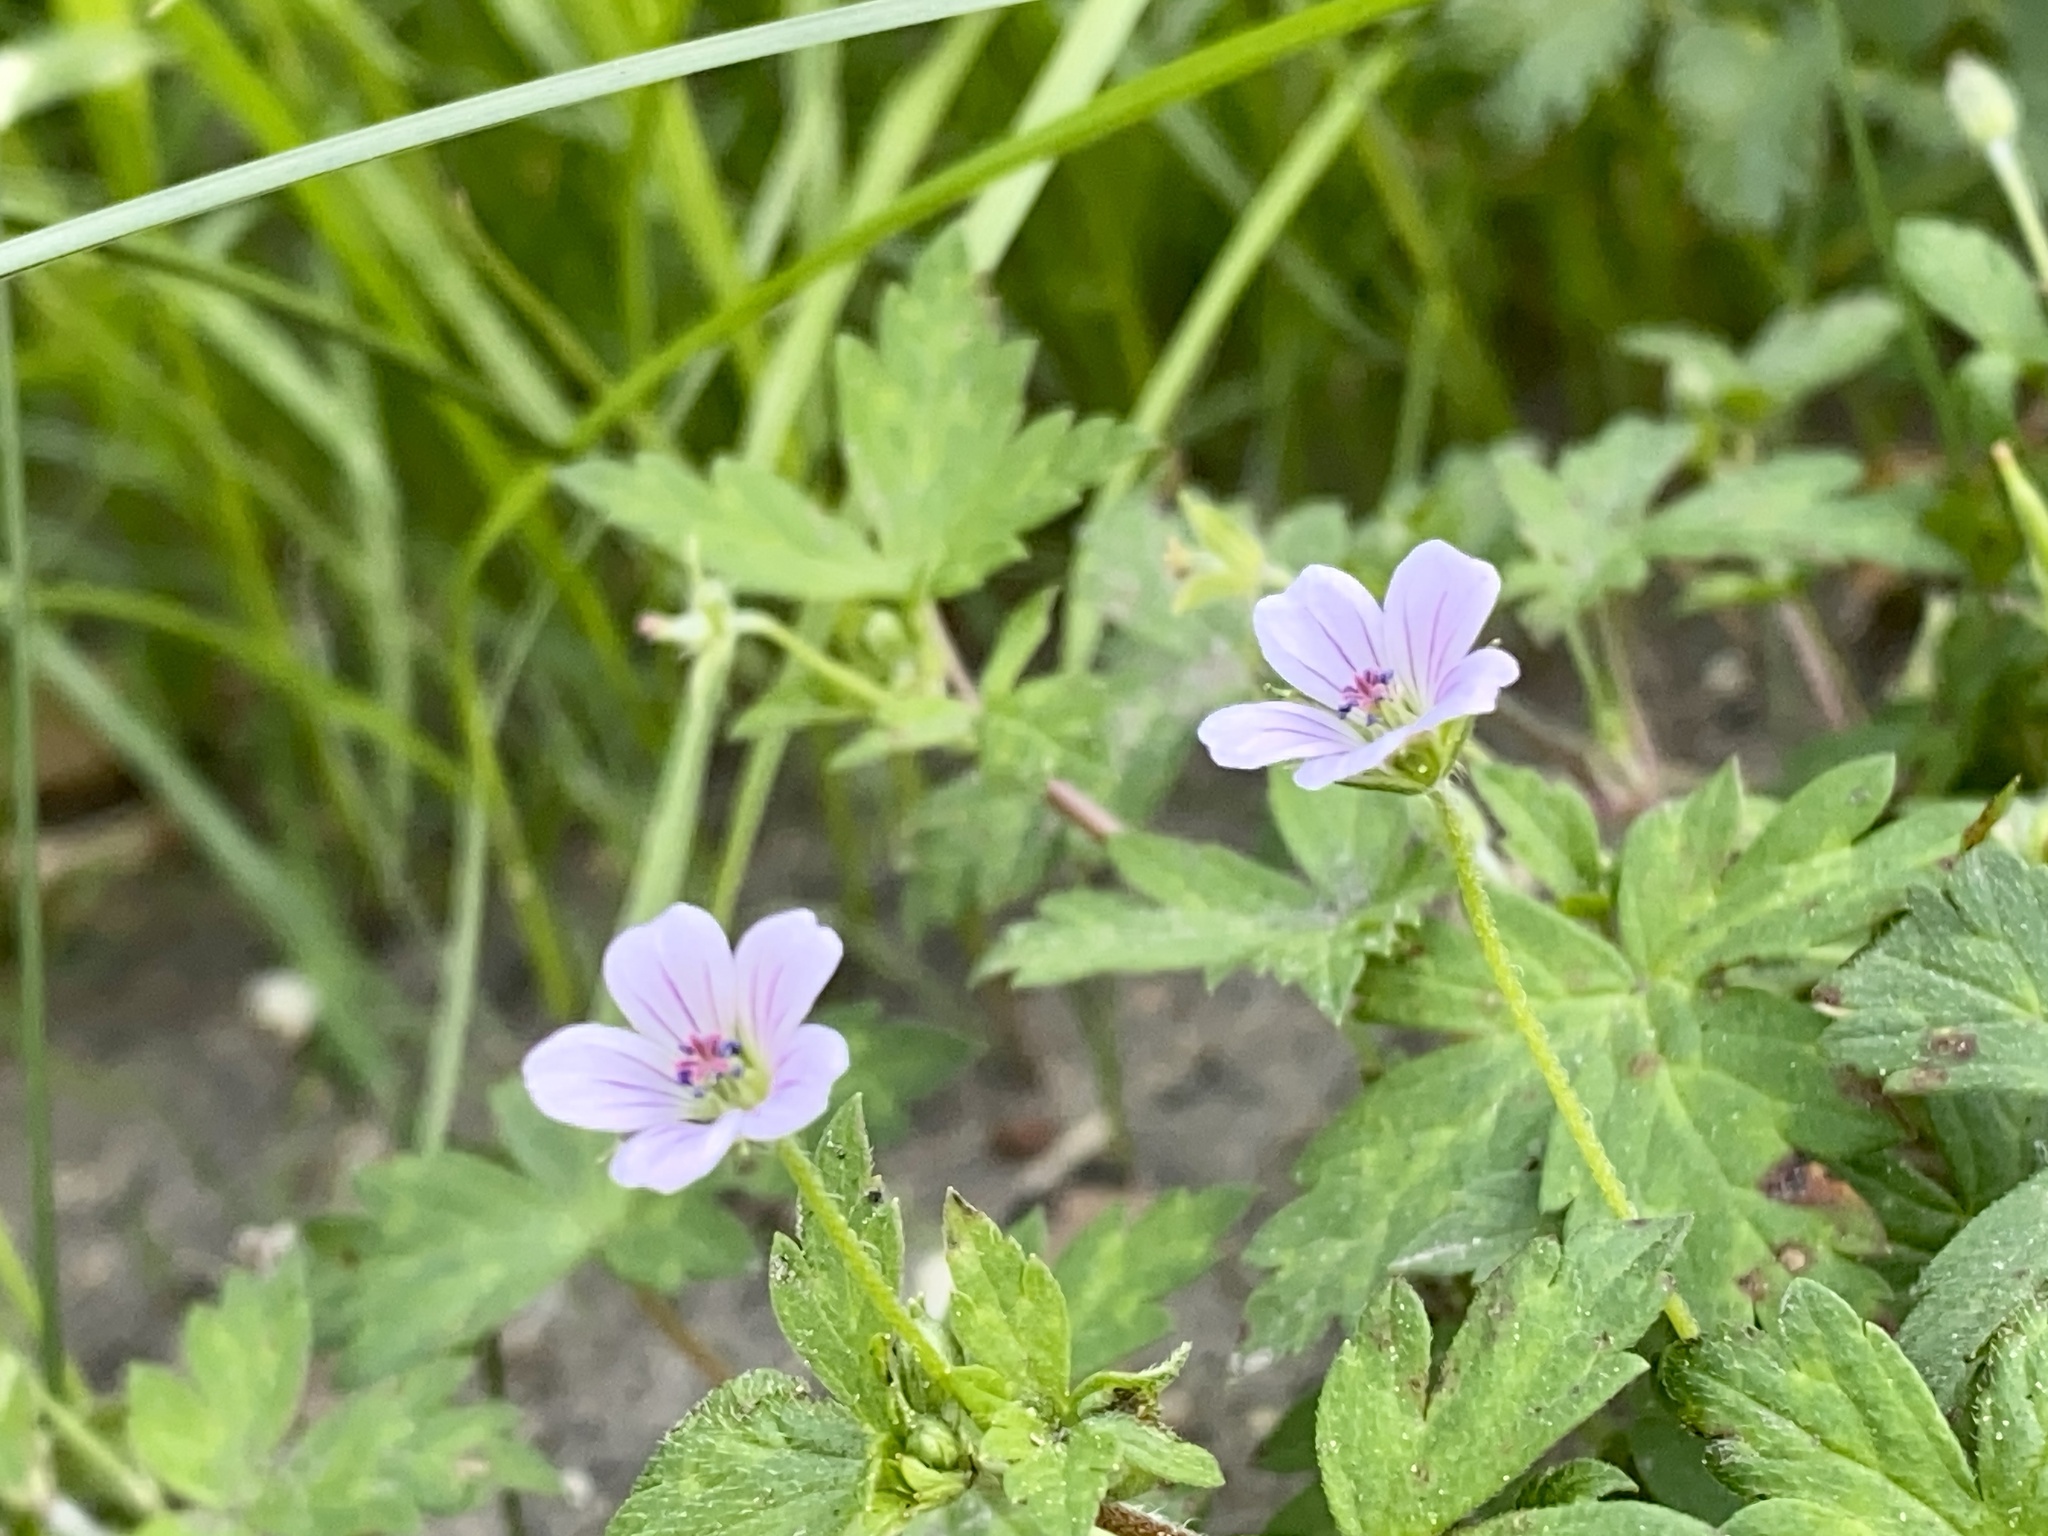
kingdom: Plantae
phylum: Tracheophyta
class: Magnoliopsida
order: Geraniales
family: Geraniaceae
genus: Geranium
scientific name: Geranium sibiricum
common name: Siberian crane's-bill
